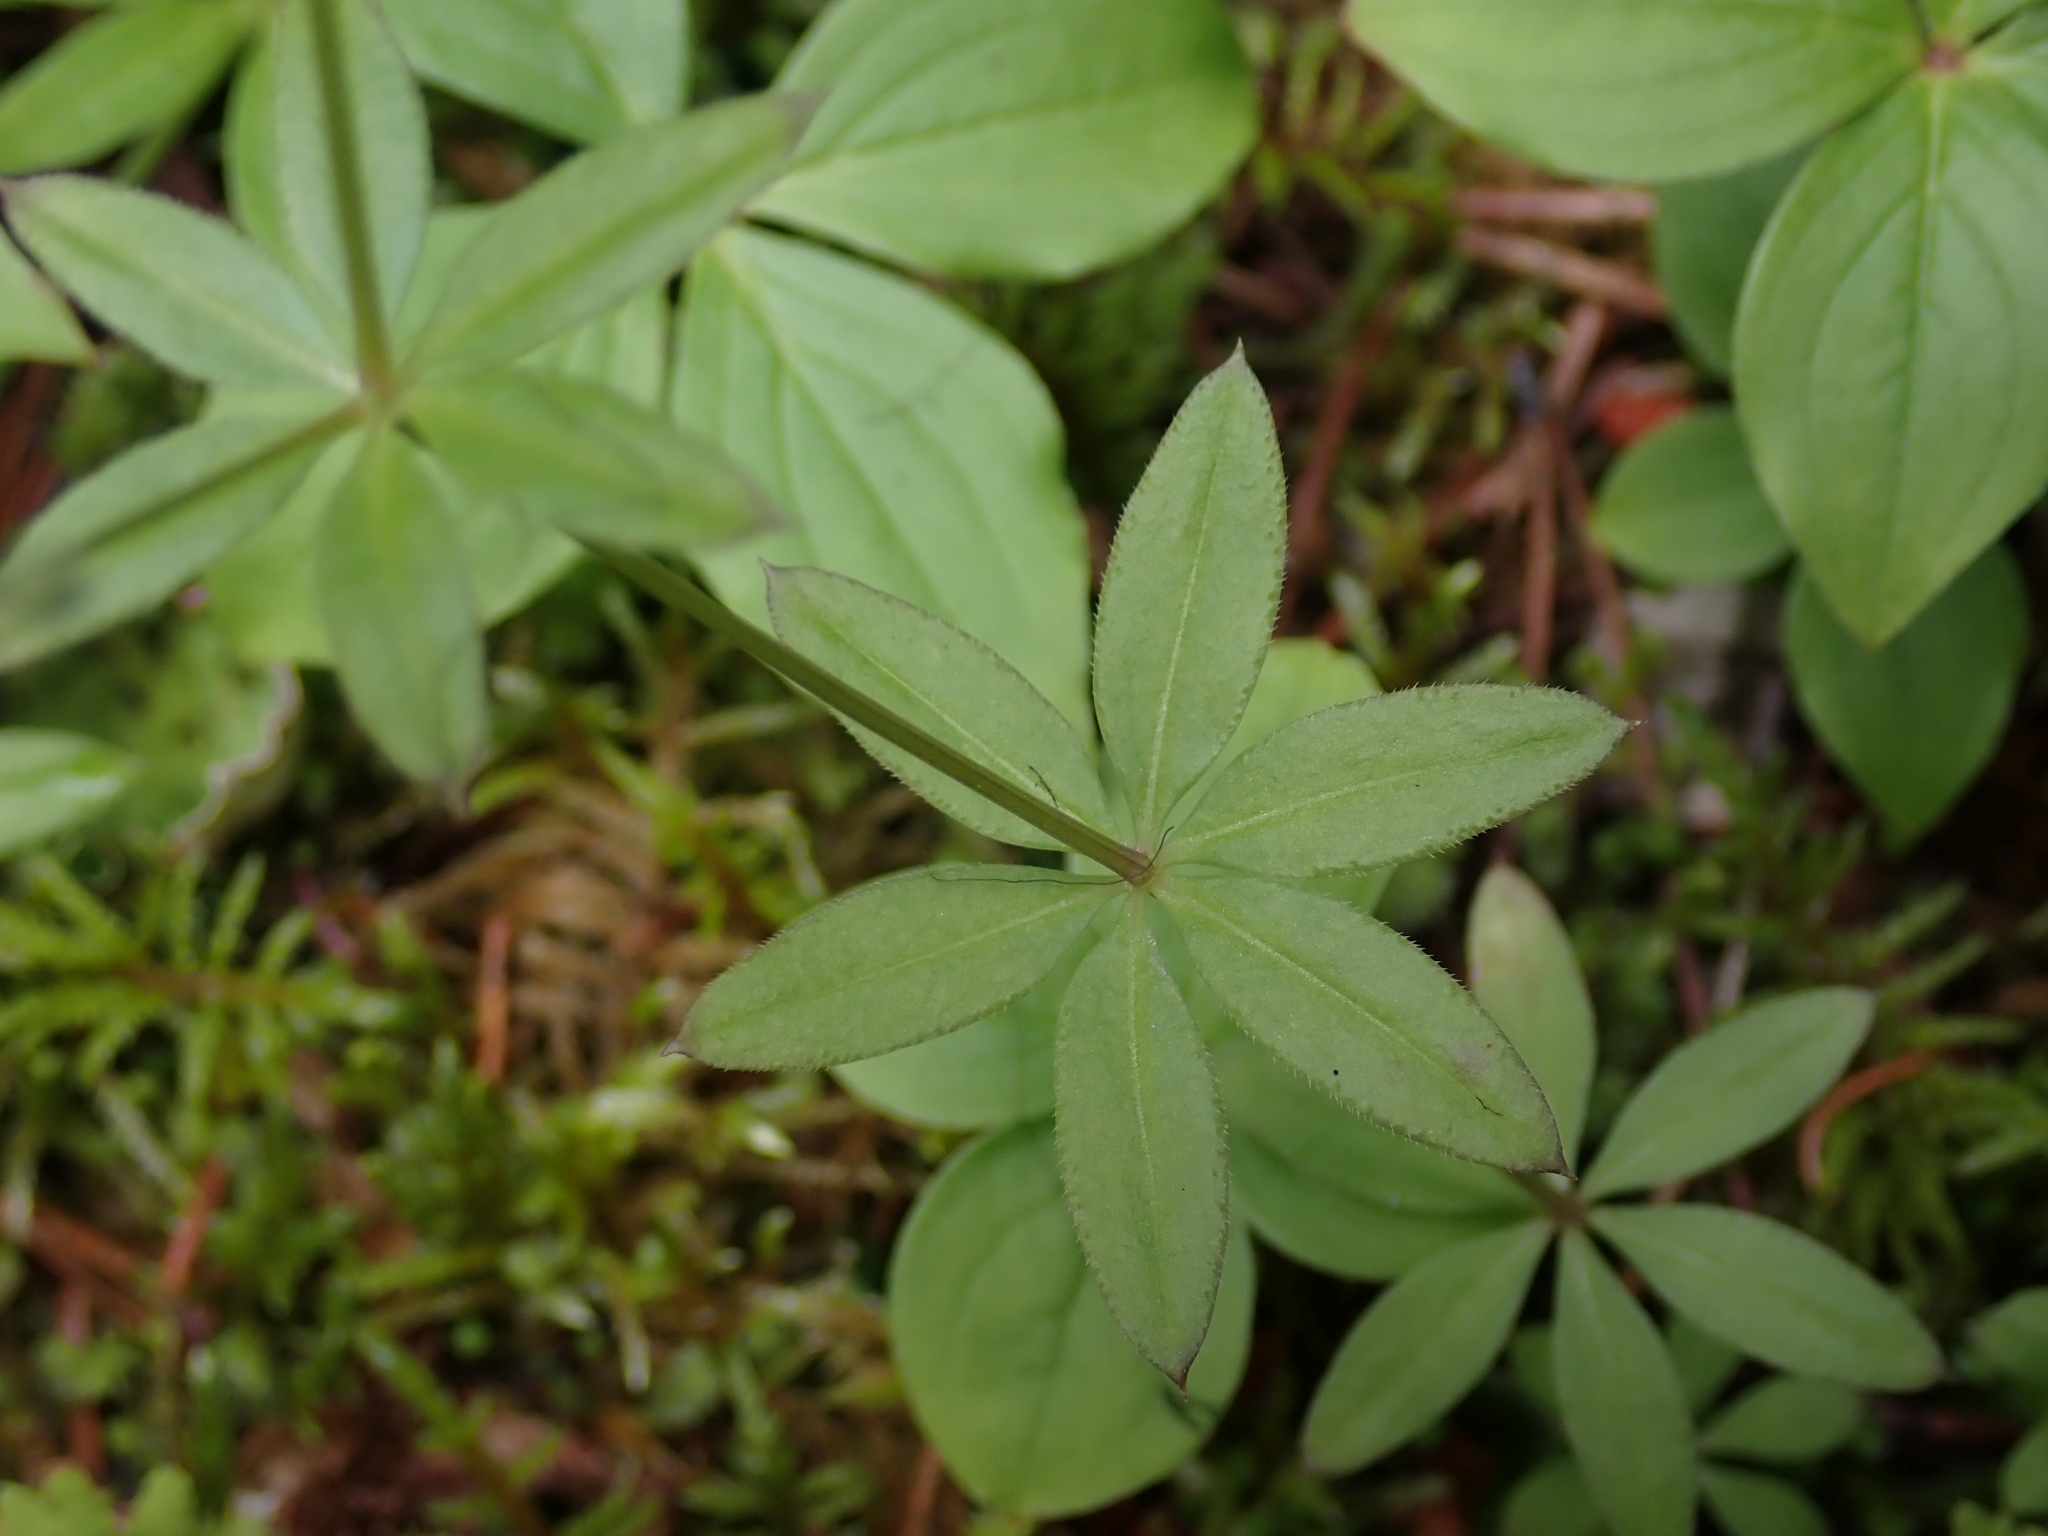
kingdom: Plantae
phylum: Tracheophyta
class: Magnoliopsida
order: Gentianales
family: Rubiaceae
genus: Galium
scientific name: Galium triflorum
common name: Fragrant bedstraw
